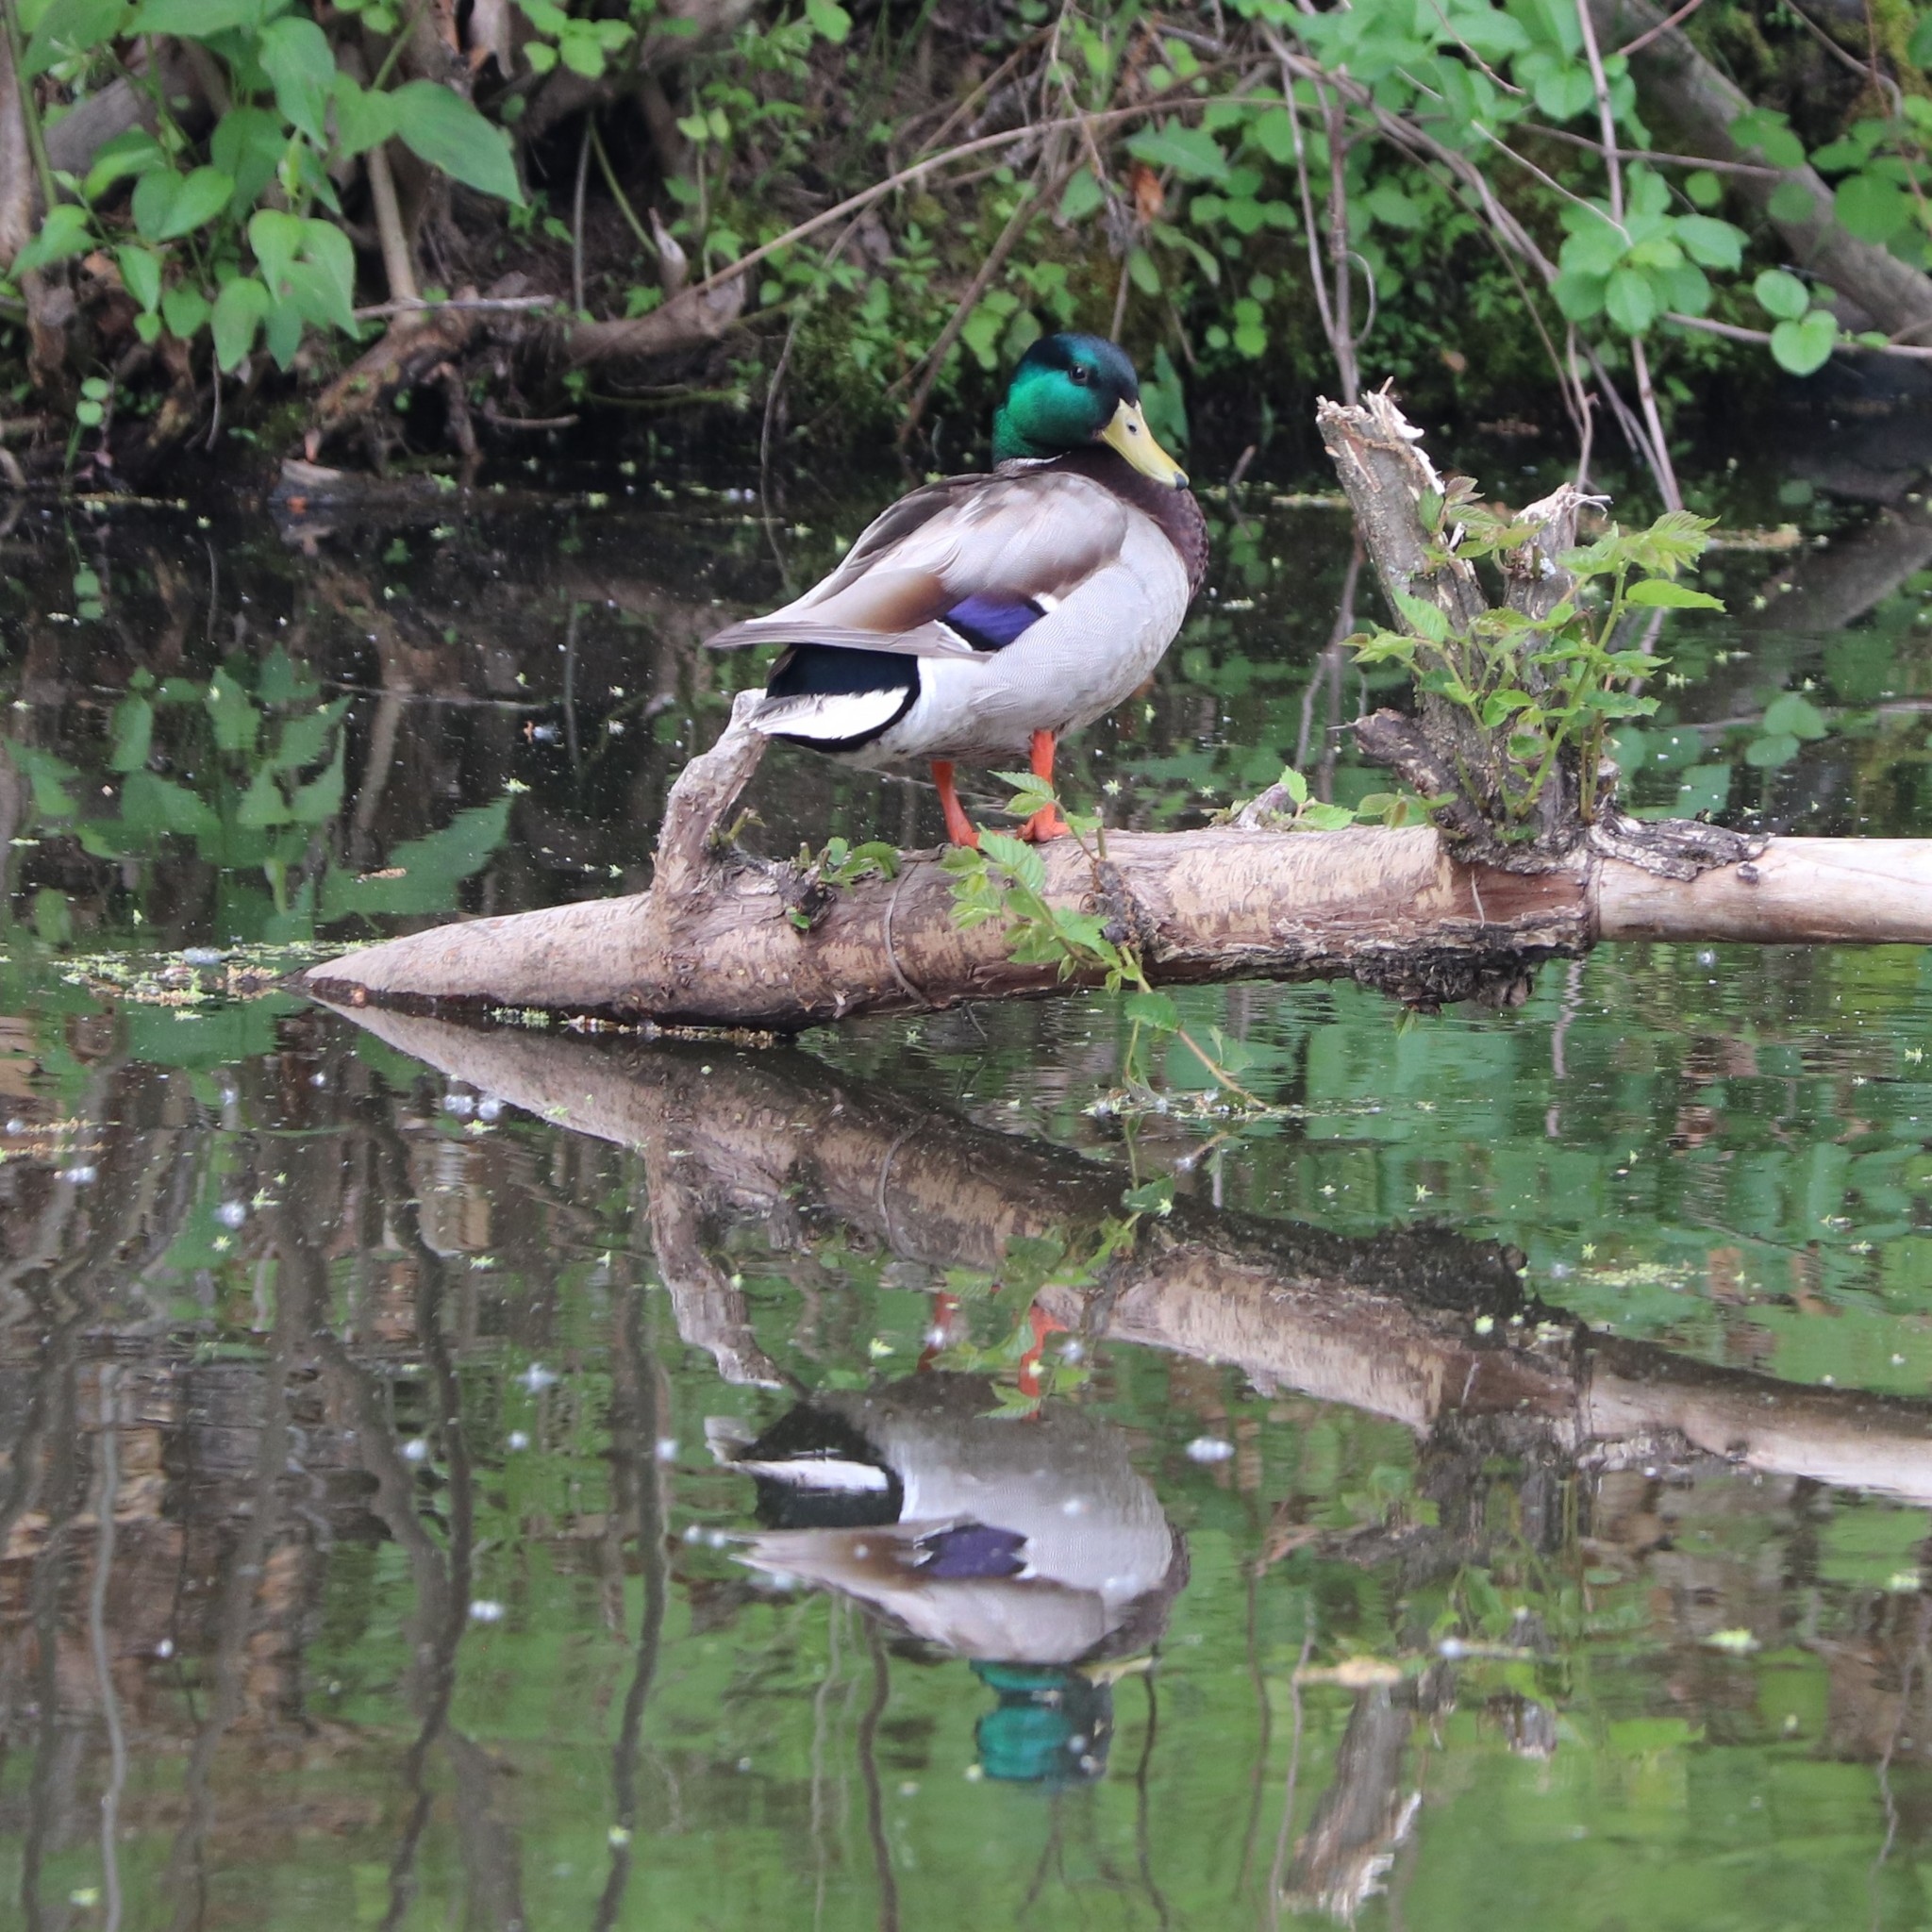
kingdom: Animalia
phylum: Chordata
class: Aves
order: Anseriformes
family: Anatidae
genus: Anas
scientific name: Anas platyrhynchos
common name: Mallard
